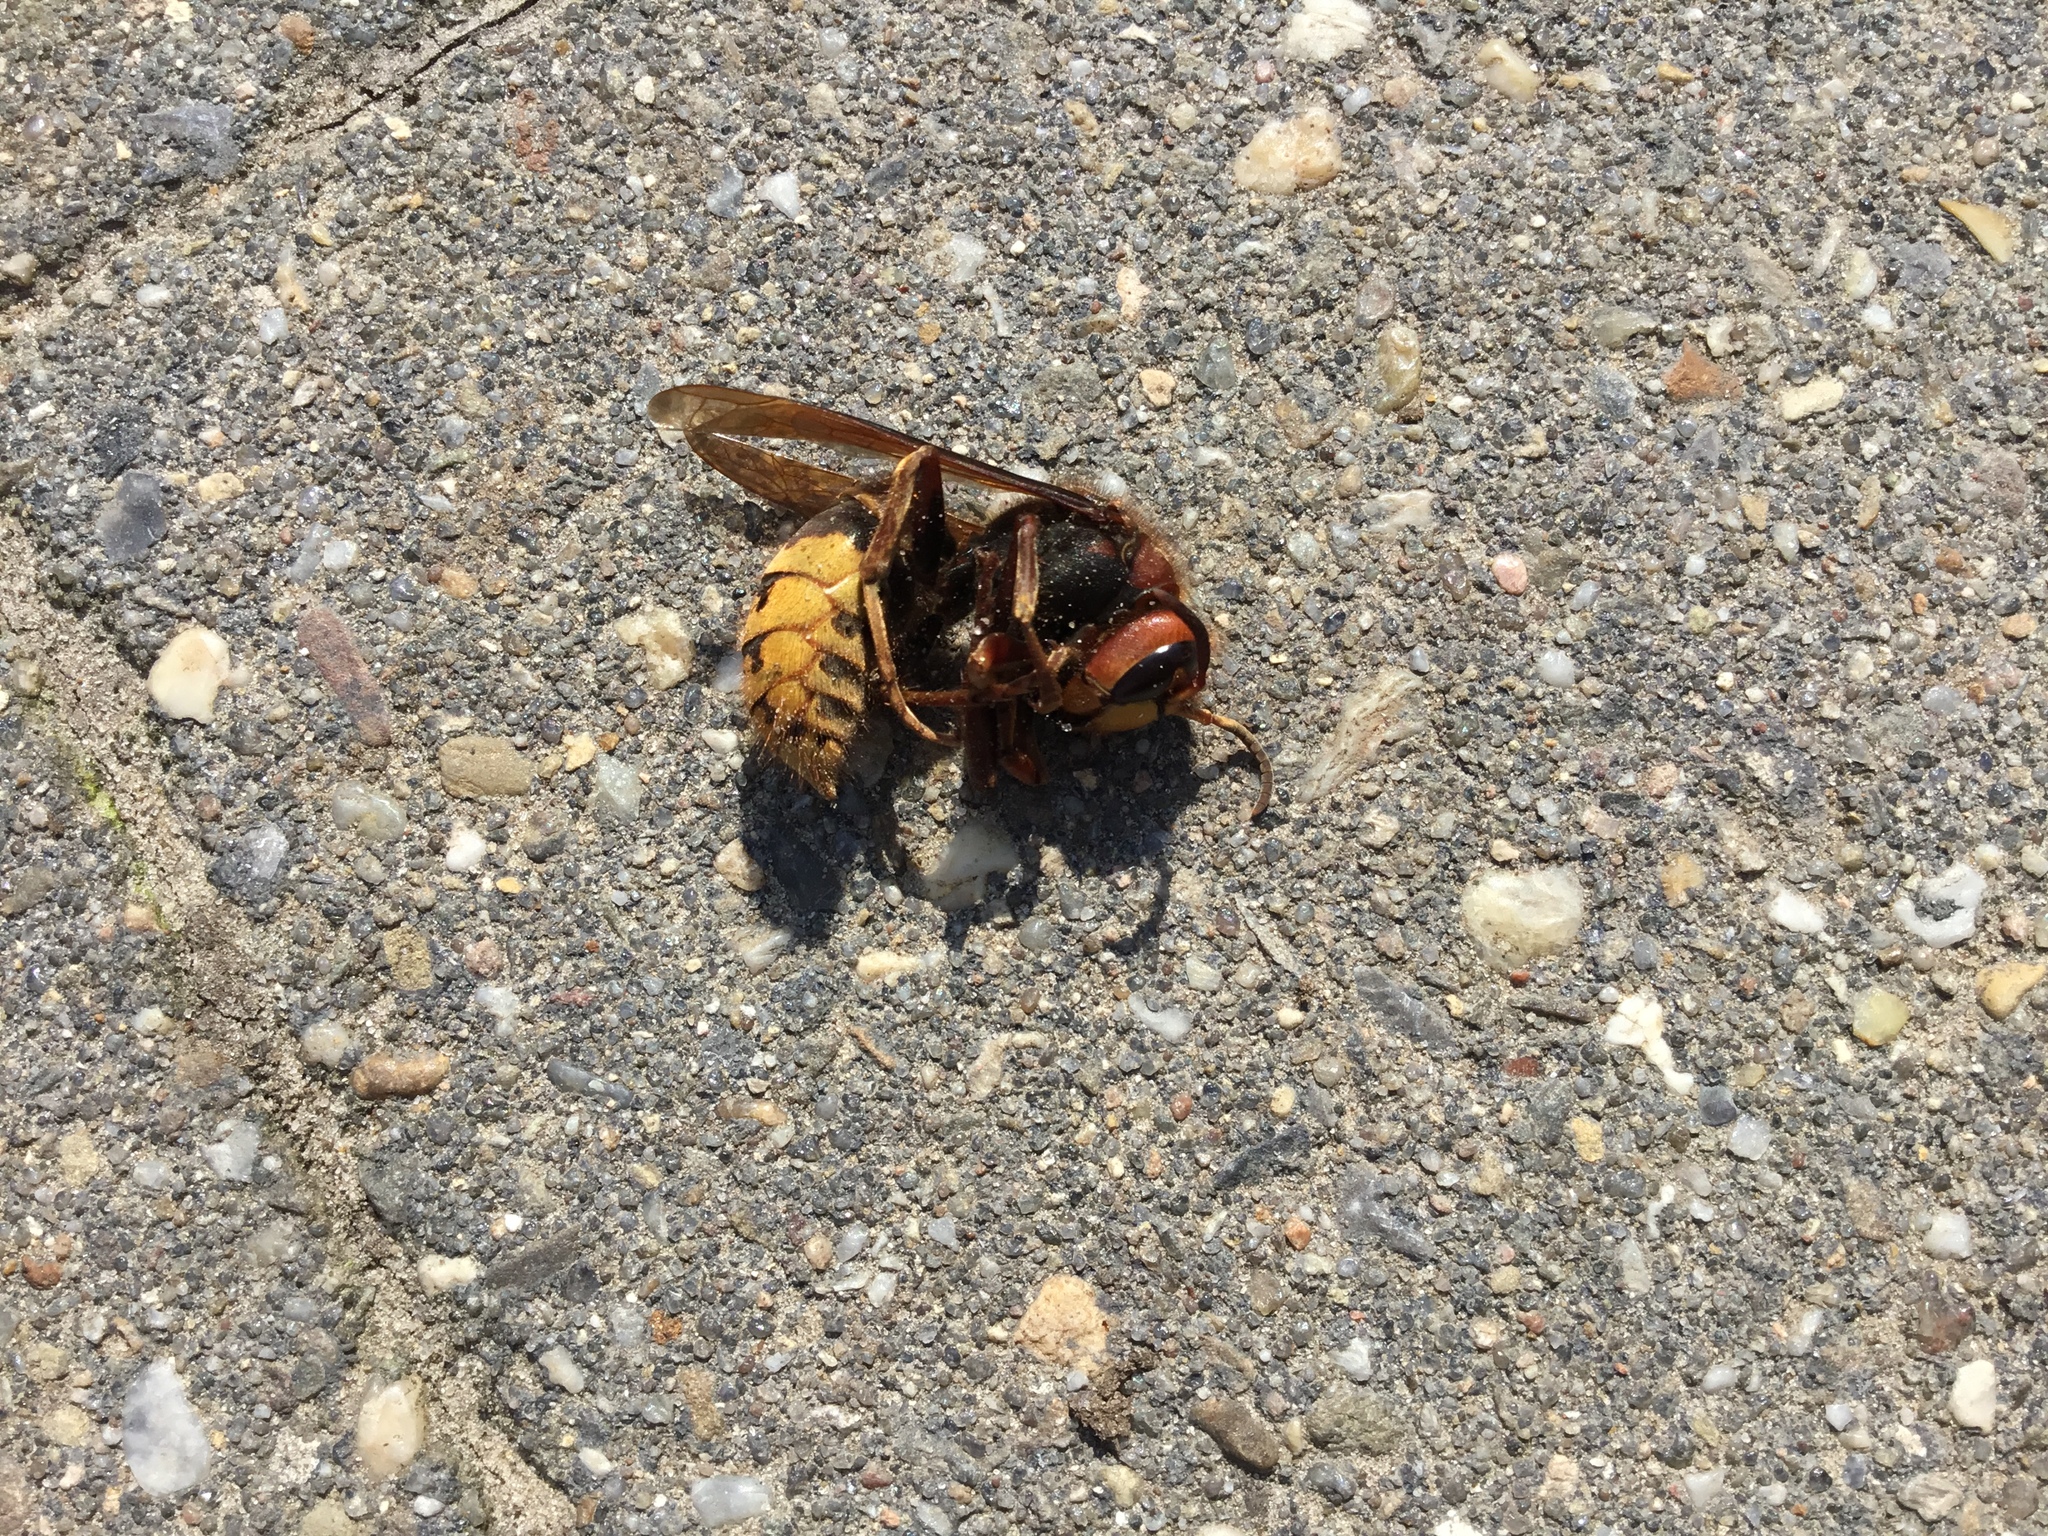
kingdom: Animalia
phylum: Arthropoda
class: Insecta
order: Hymenoptera
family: Vespidae
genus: Vespa
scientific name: Vespa crabro
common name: Hornet
